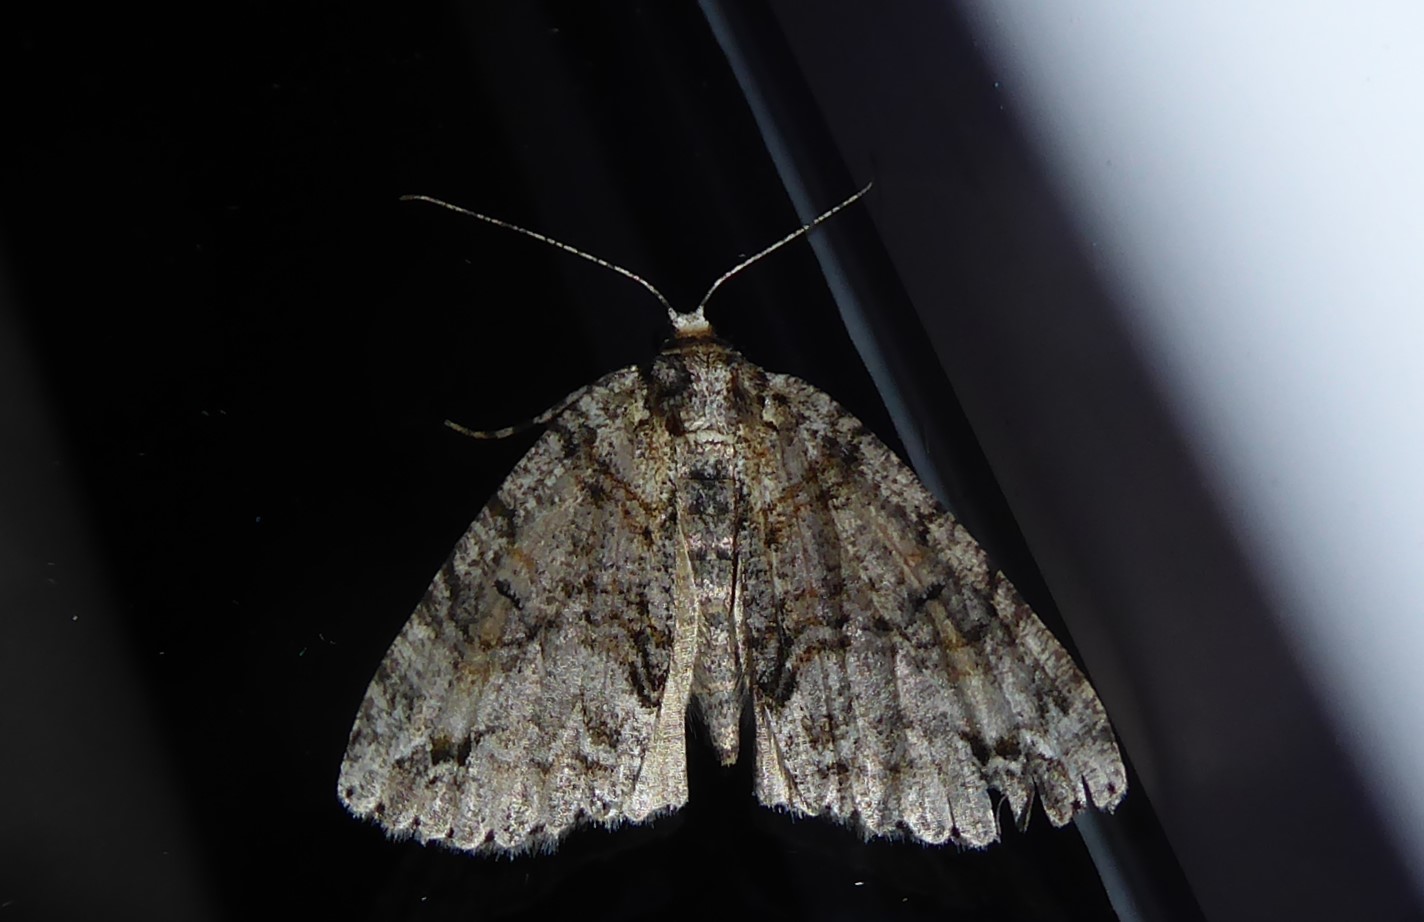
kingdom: Animalia
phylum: Arthropoda
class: Insecta
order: Lepidoptera
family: Geometridae
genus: Pseudocoremia
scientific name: Pseudocoremia suavis
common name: Common forest looper
